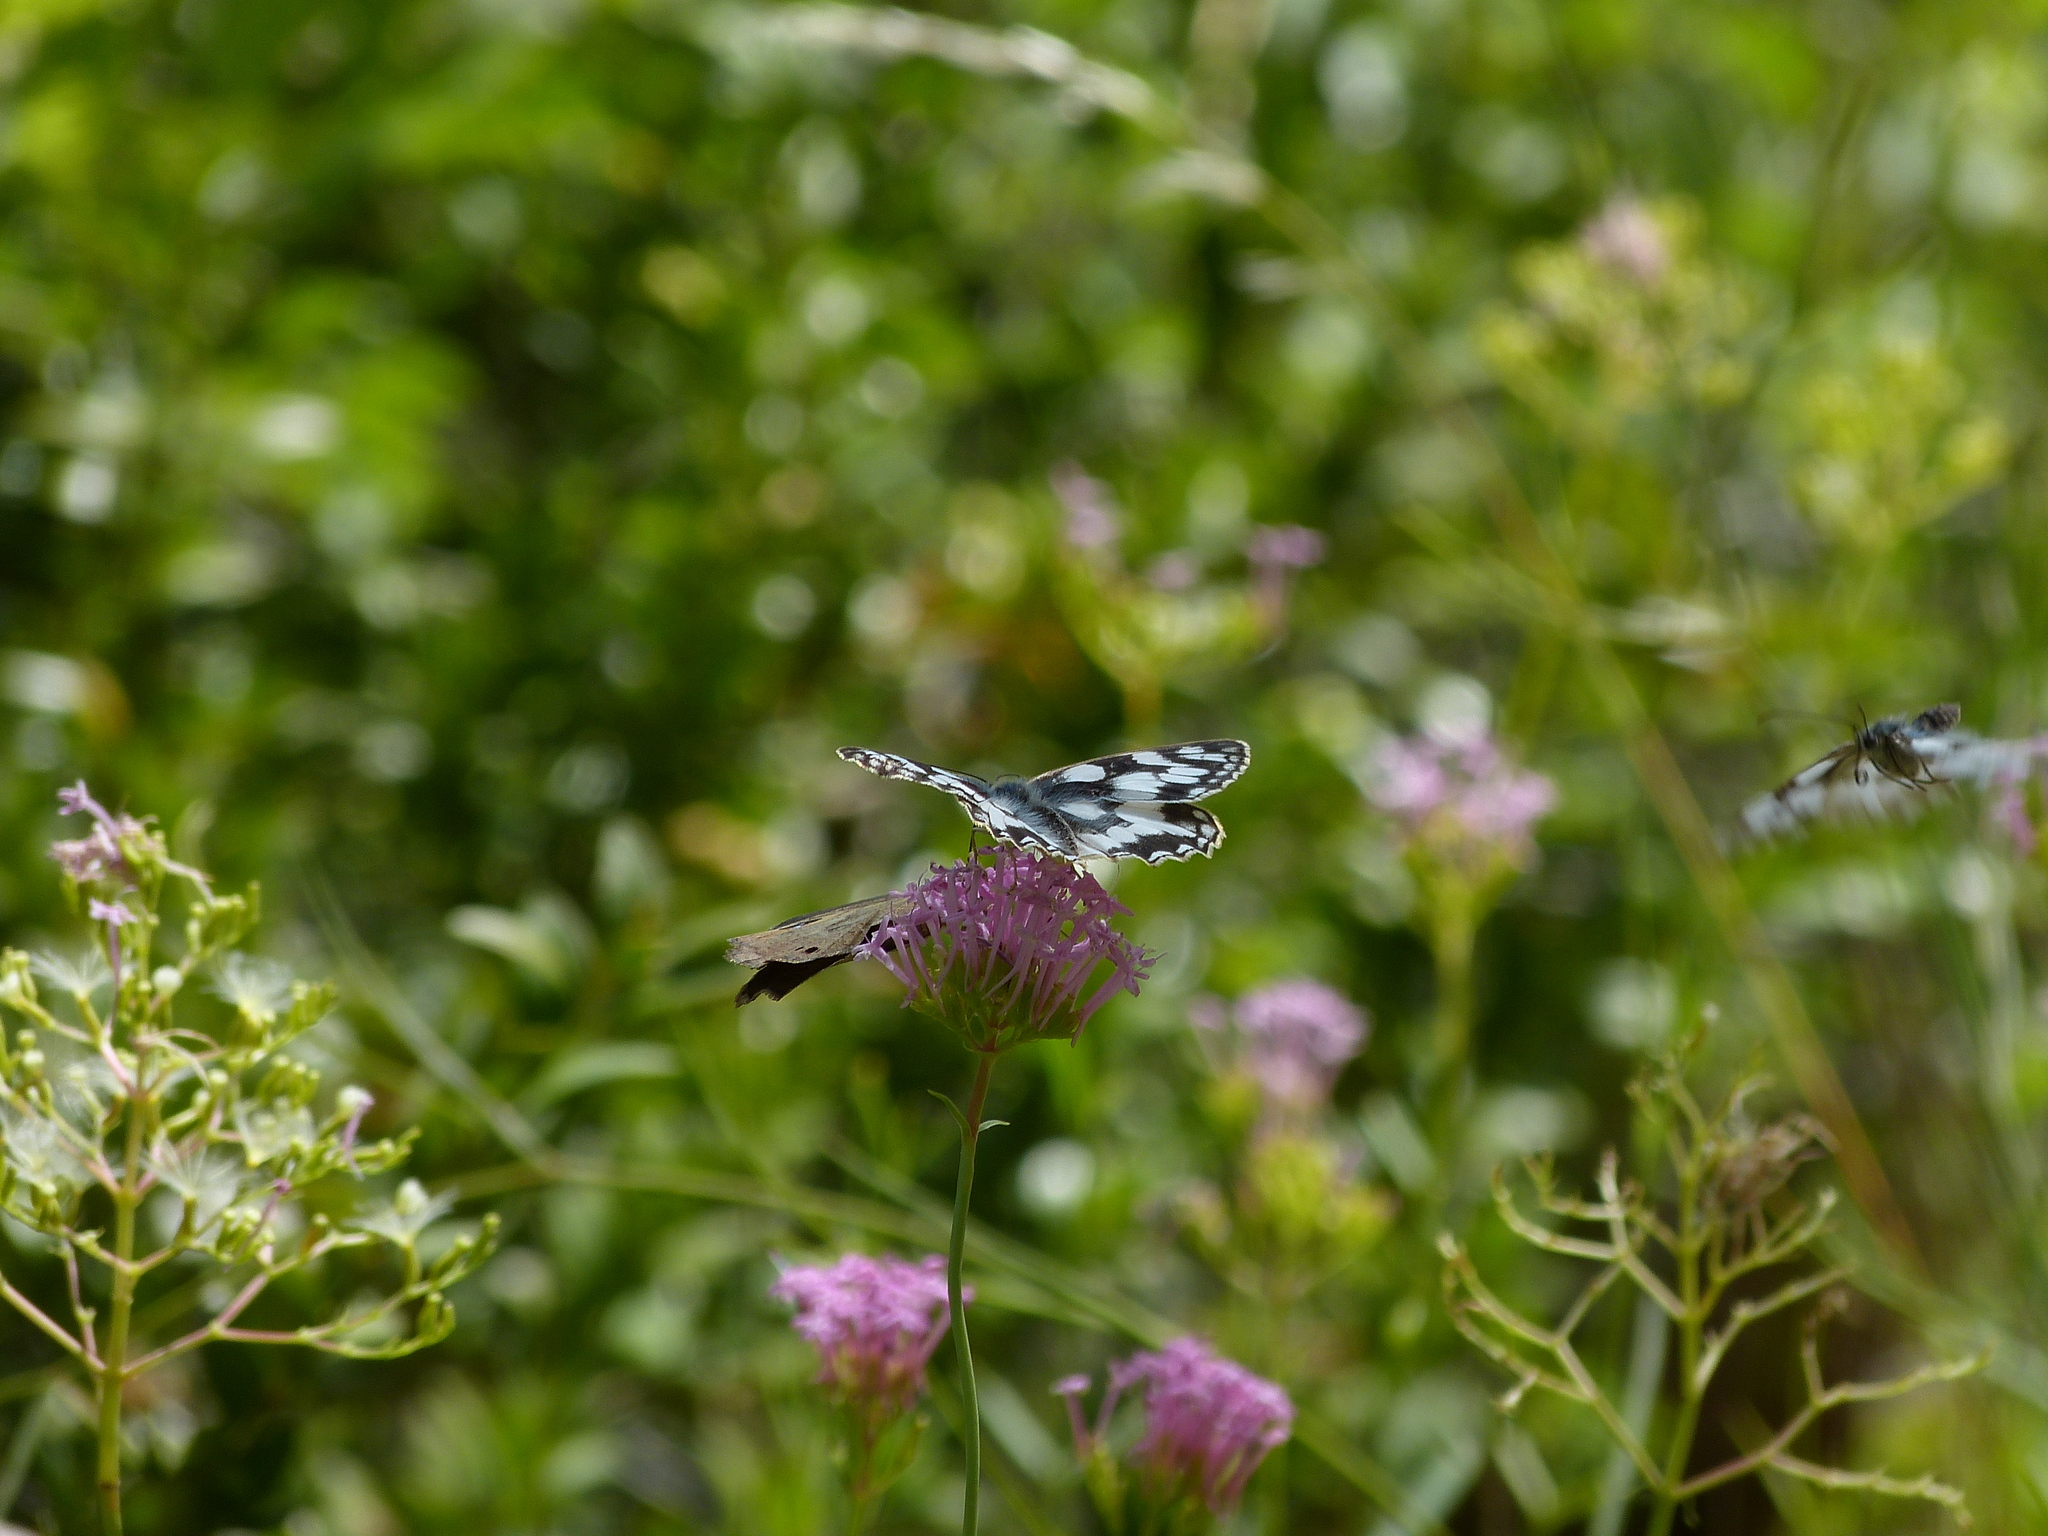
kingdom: Animalia
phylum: Arthropoda
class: Insecta
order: Lepidoptera
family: Nymphalidae
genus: Melanargia
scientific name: Melanargia galathea
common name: Marbled white
